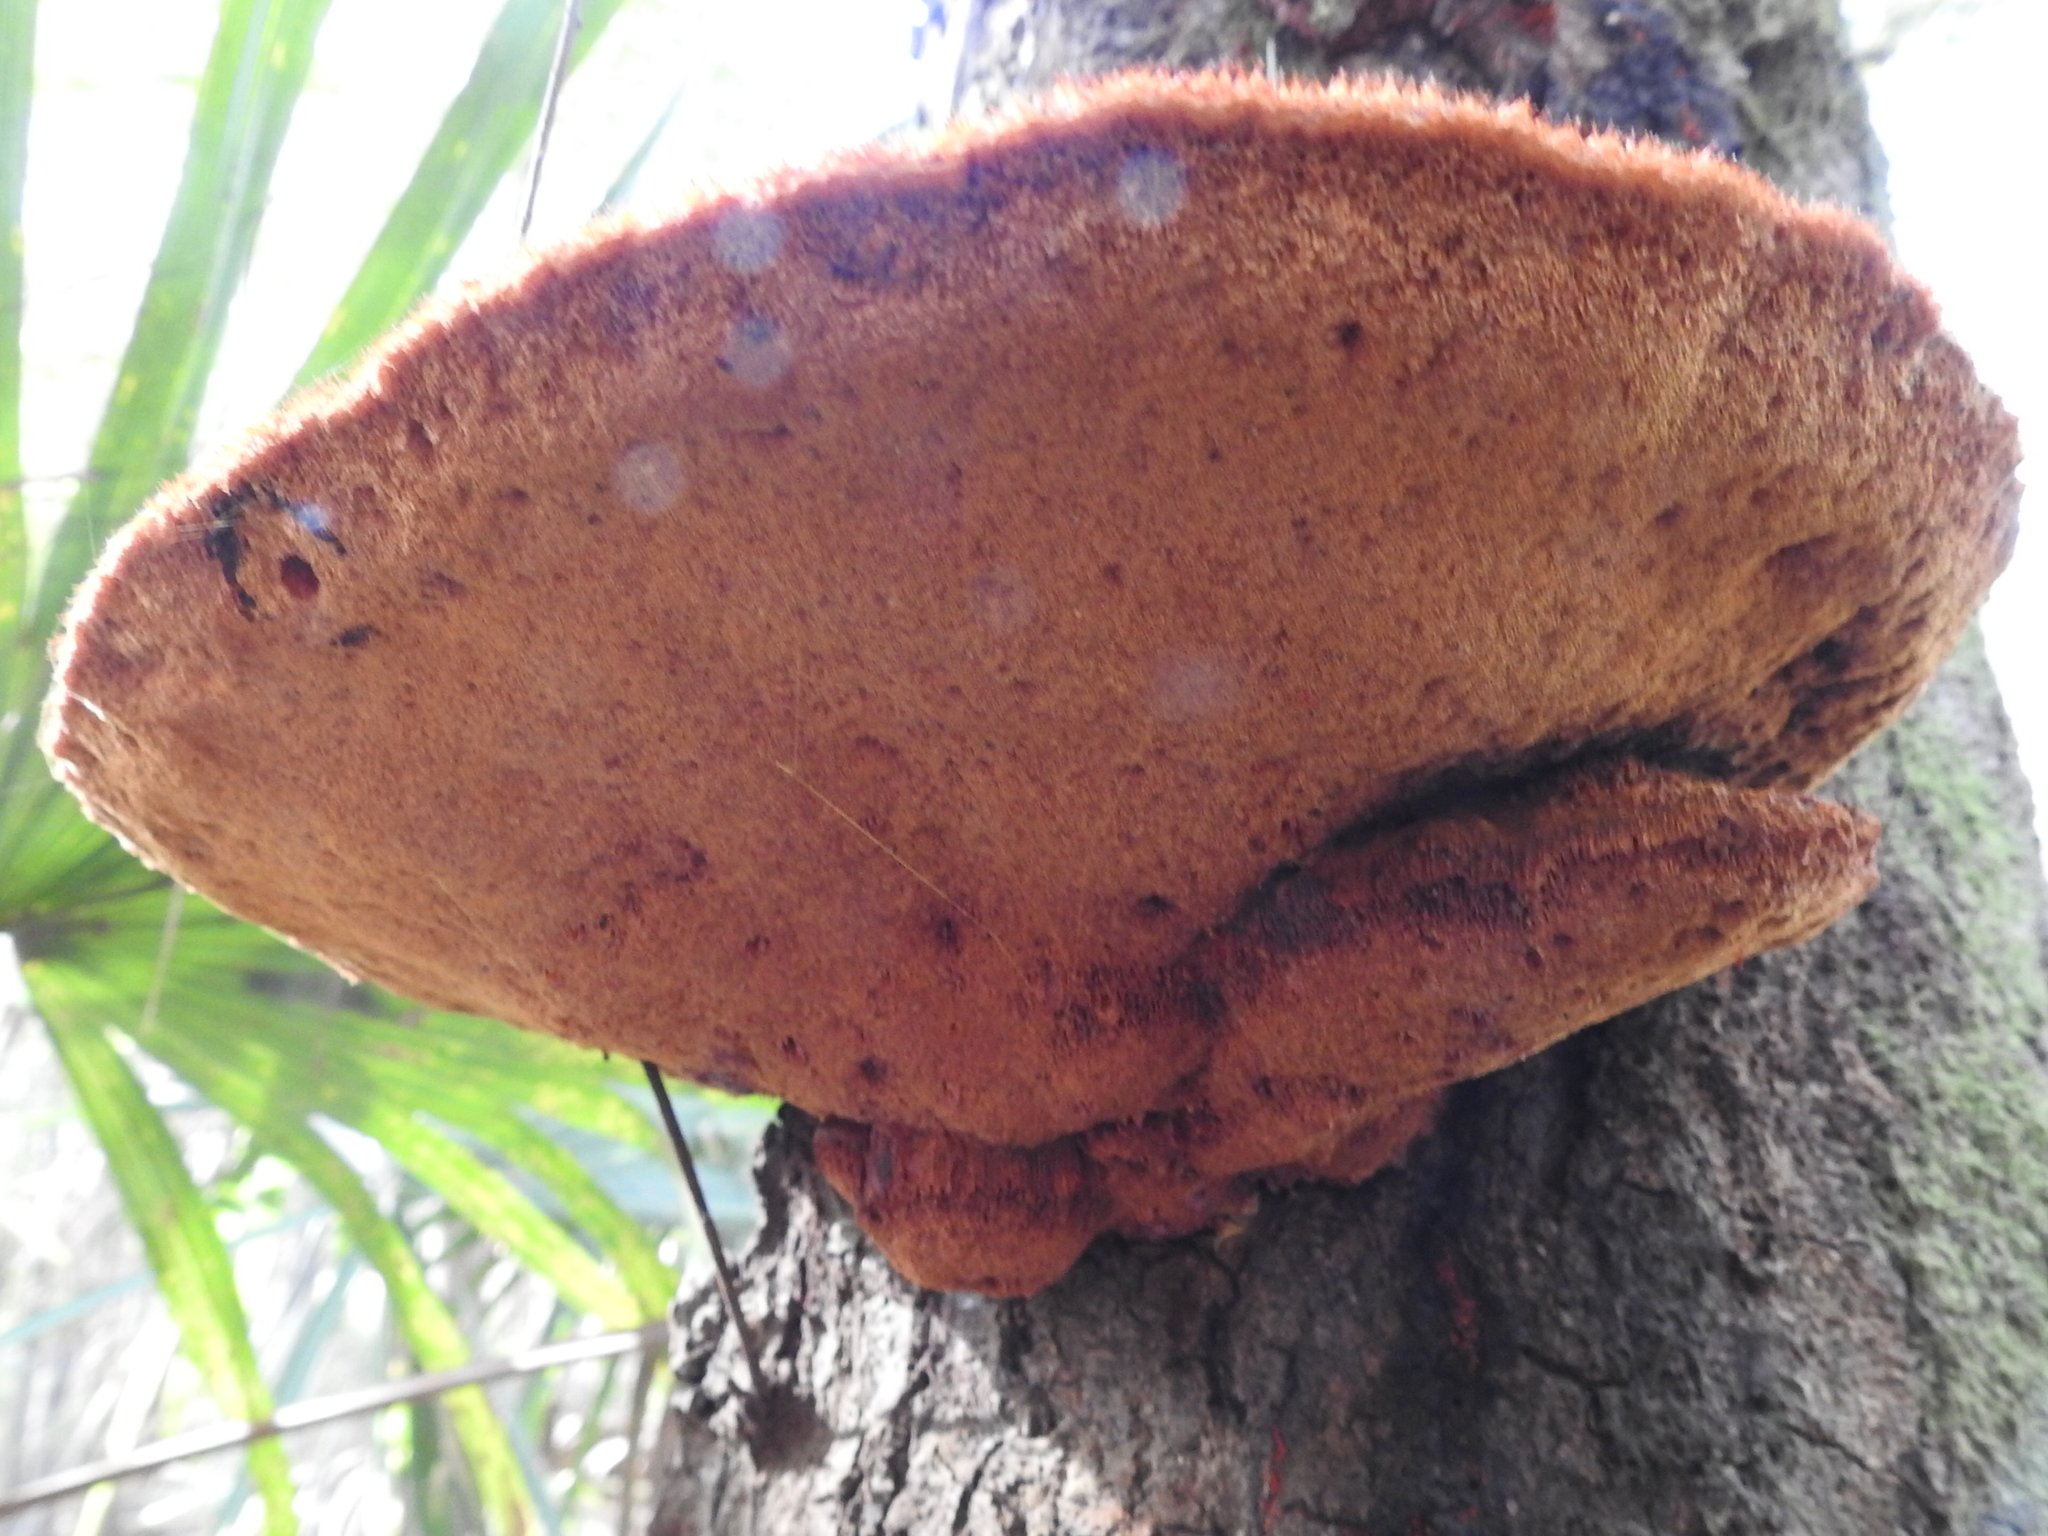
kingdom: Fungi
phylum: Basidiomycota
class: Agaricomycetes
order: Polyporales
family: Cerrenaceae
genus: Cerrena
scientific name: Cerrena hydnoides
